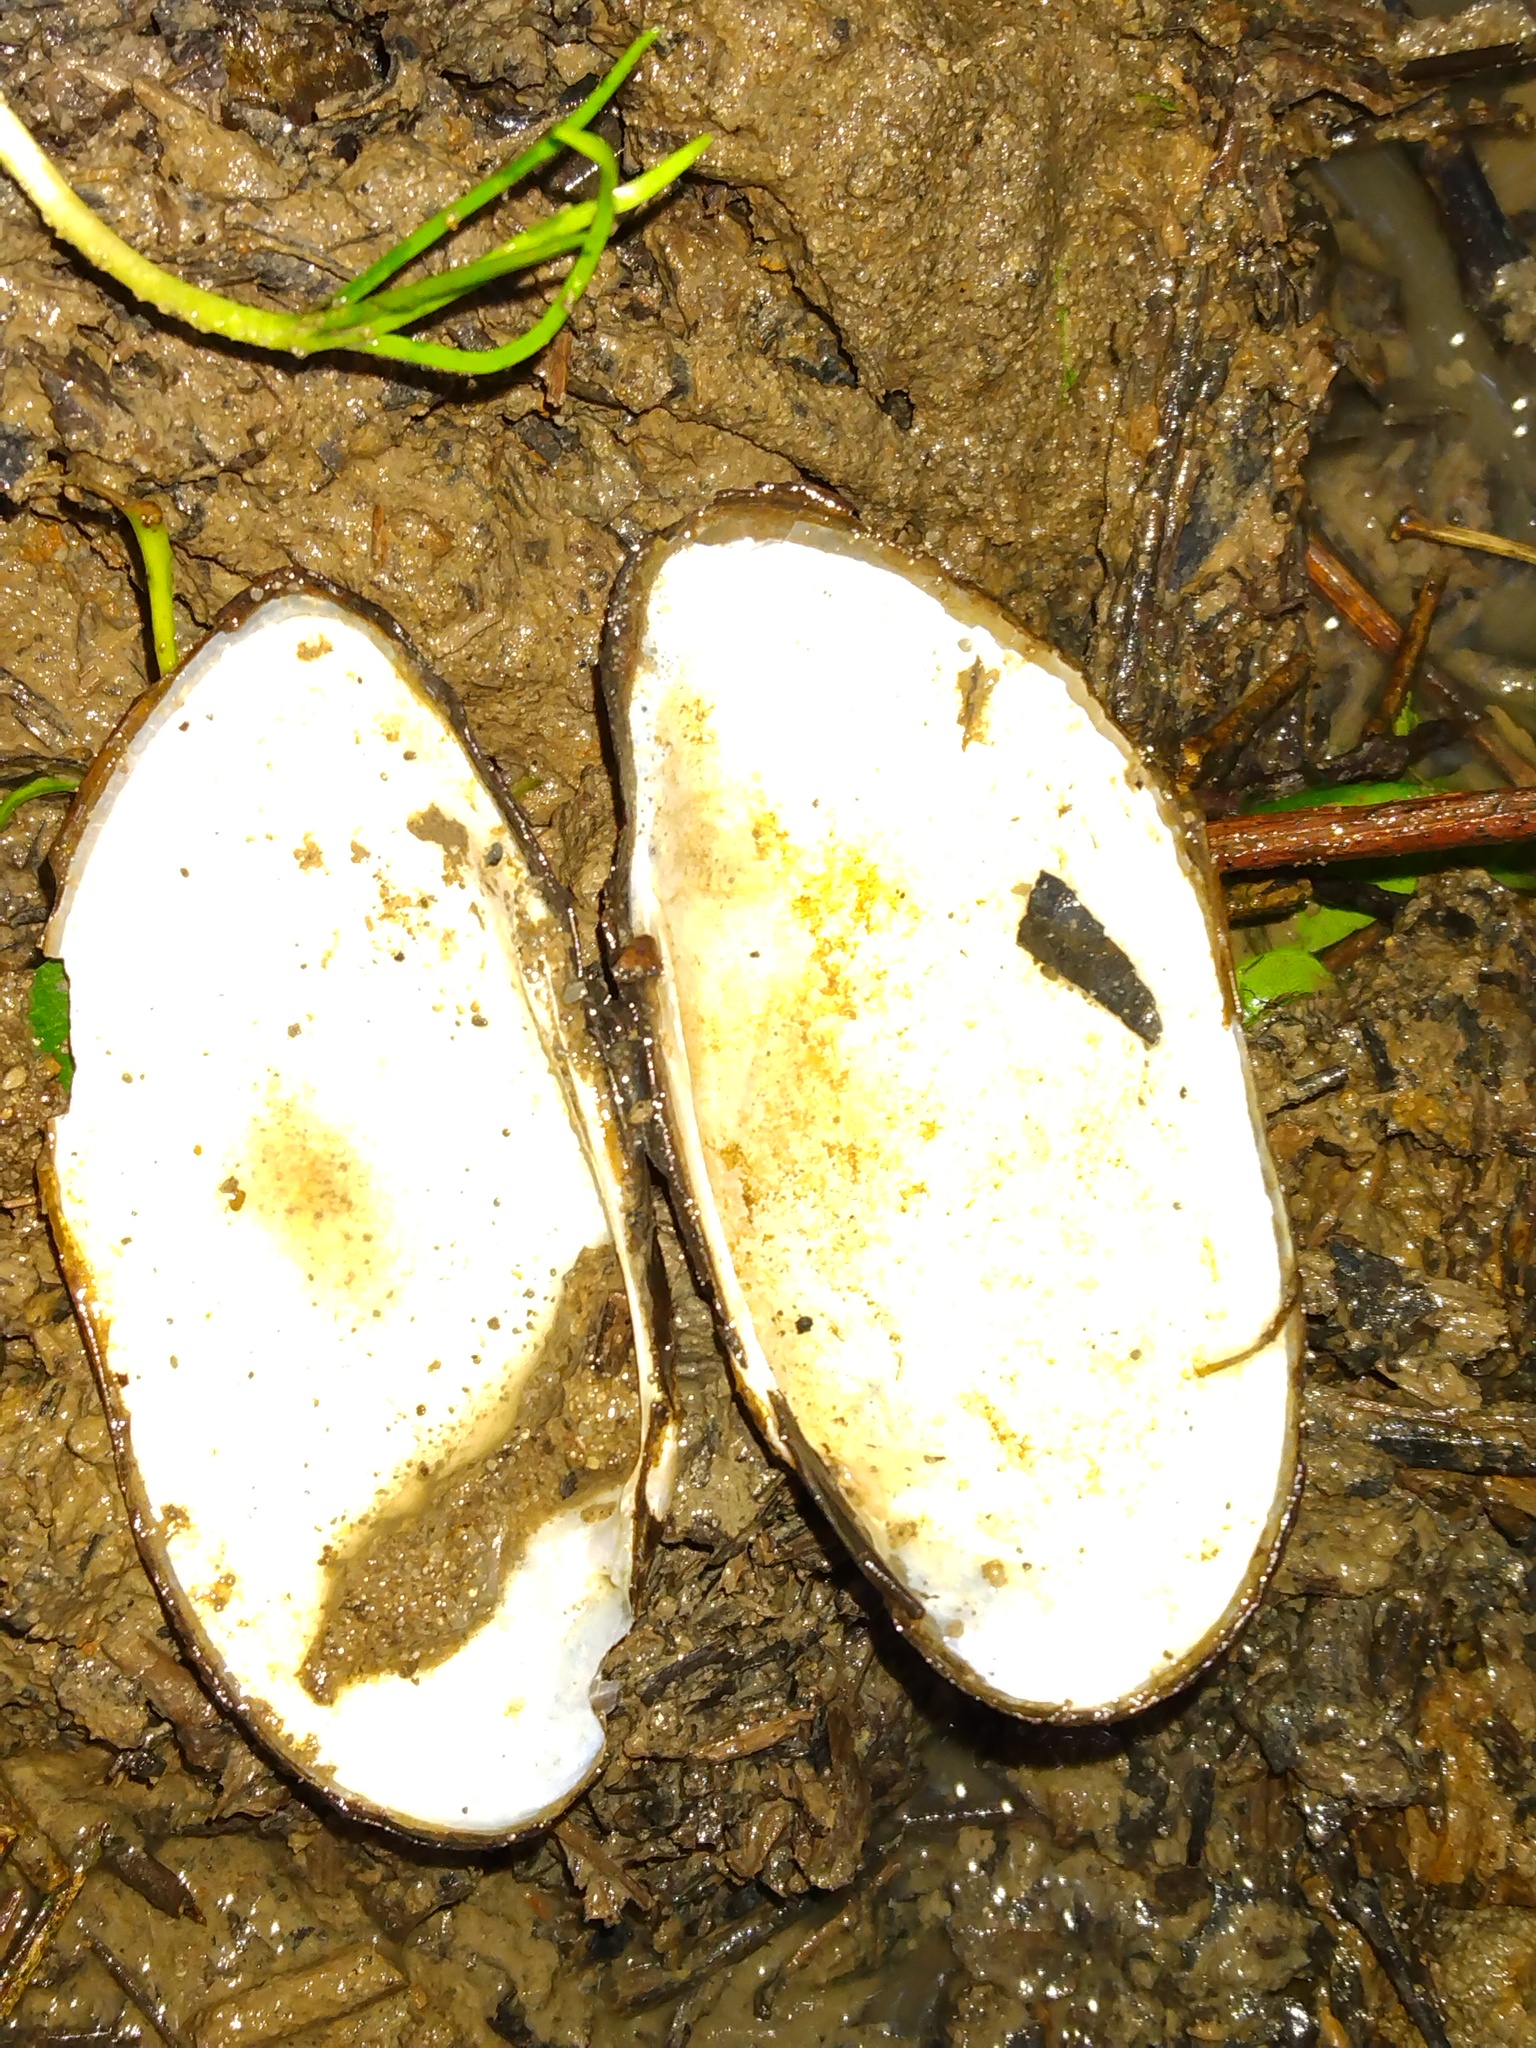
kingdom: Animalia
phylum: Mollusca
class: Bivalvia
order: Unionida
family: Unionidae
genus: Lampsilis
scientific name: Lampsilis teres
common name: Yellow sandshell
